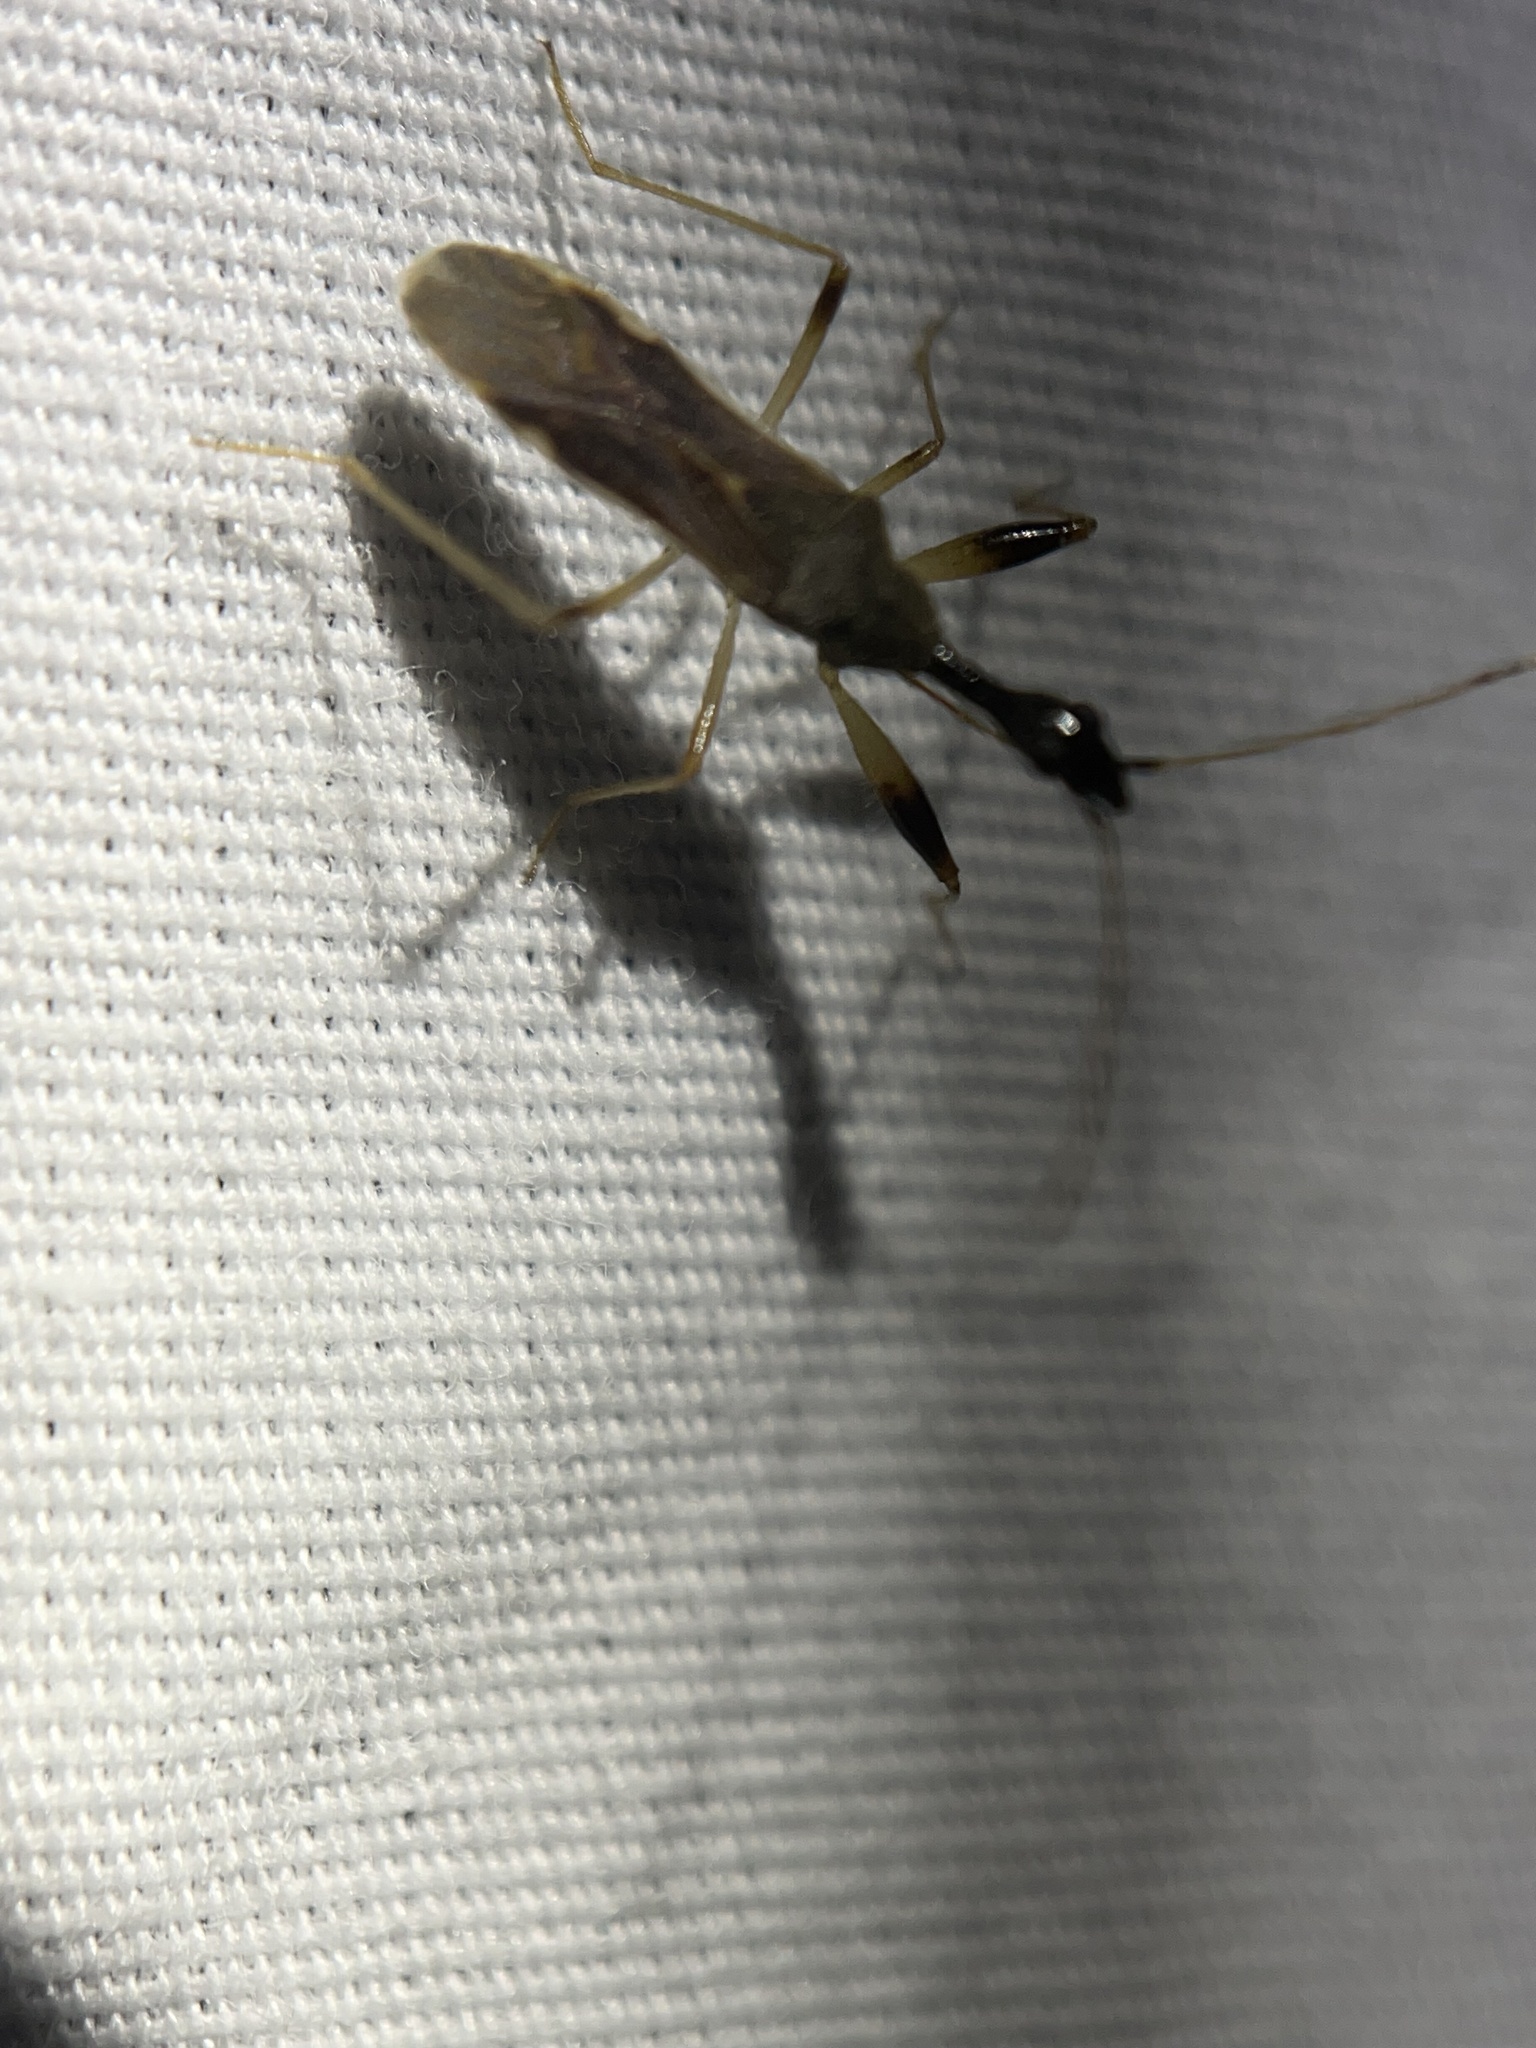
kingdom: Animalia
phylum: Arthropoda
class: Insecta
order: Hemiptera
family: Rhyparochromidae
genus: Myodocha
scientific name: Myodocha serripes
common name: Long-necked seed bug
